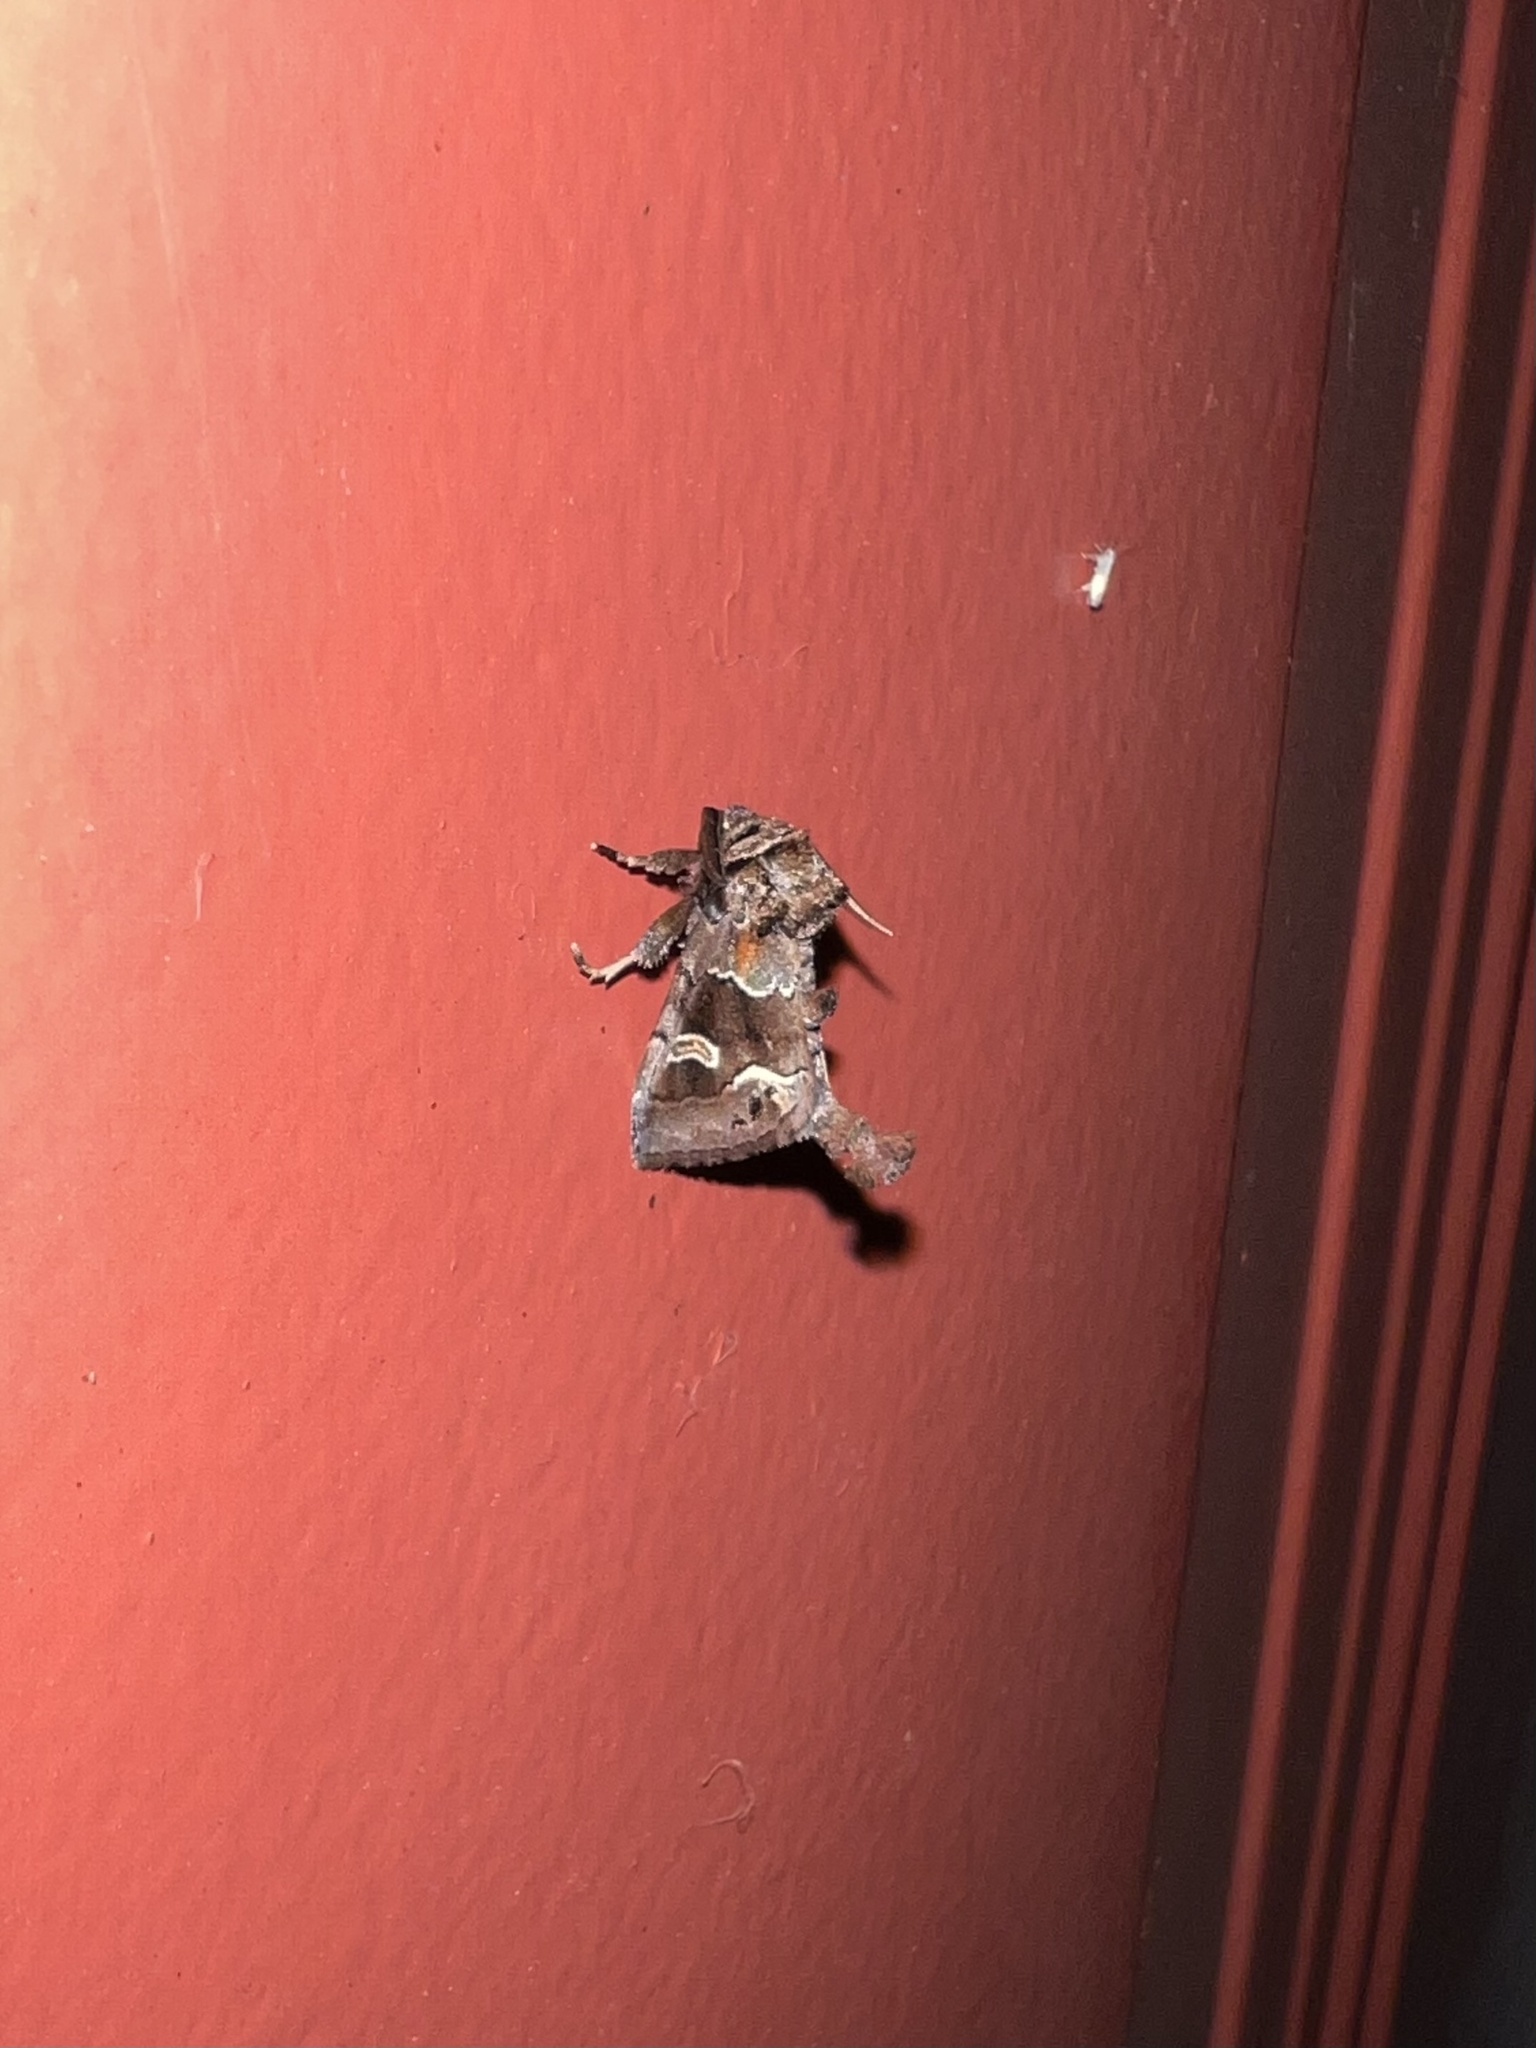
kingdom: Animalia
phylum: Arthropoda
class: Insecta
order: Lepidoptera
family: Noctuidae
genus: Acherdoa
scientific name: Acherdoa ferraria
